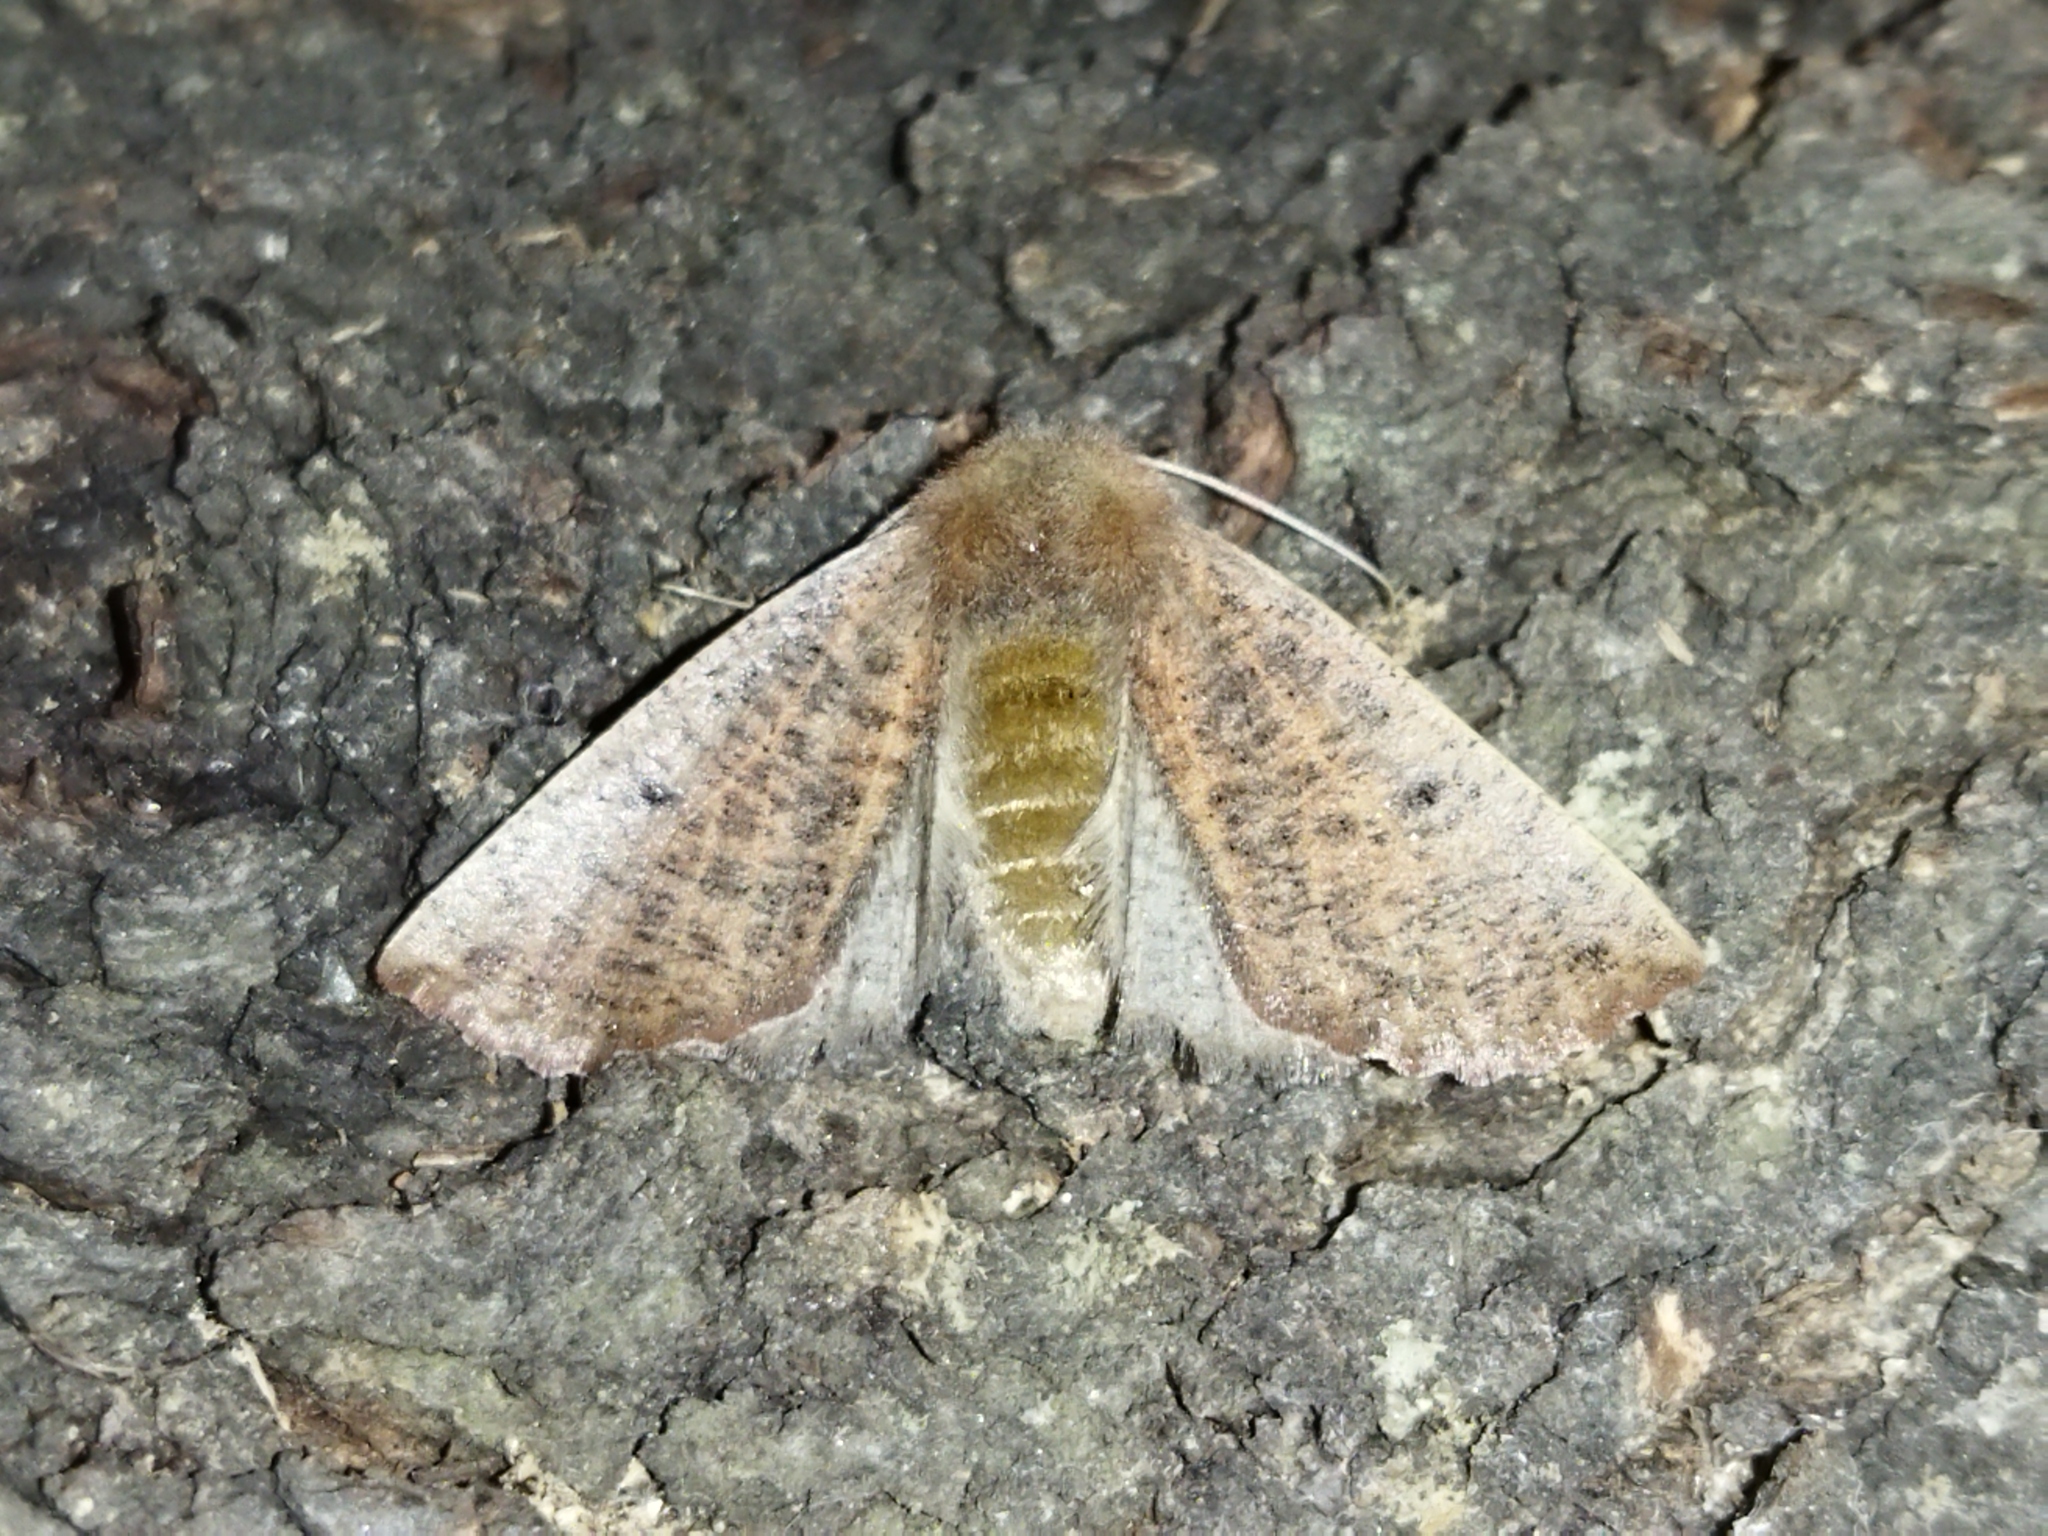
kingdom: Animalia
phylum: Arthropoda
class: Insecta
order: Lepidoptera
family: Geometridae
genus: Dasycorsa
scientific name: Dasycorsa modesta
